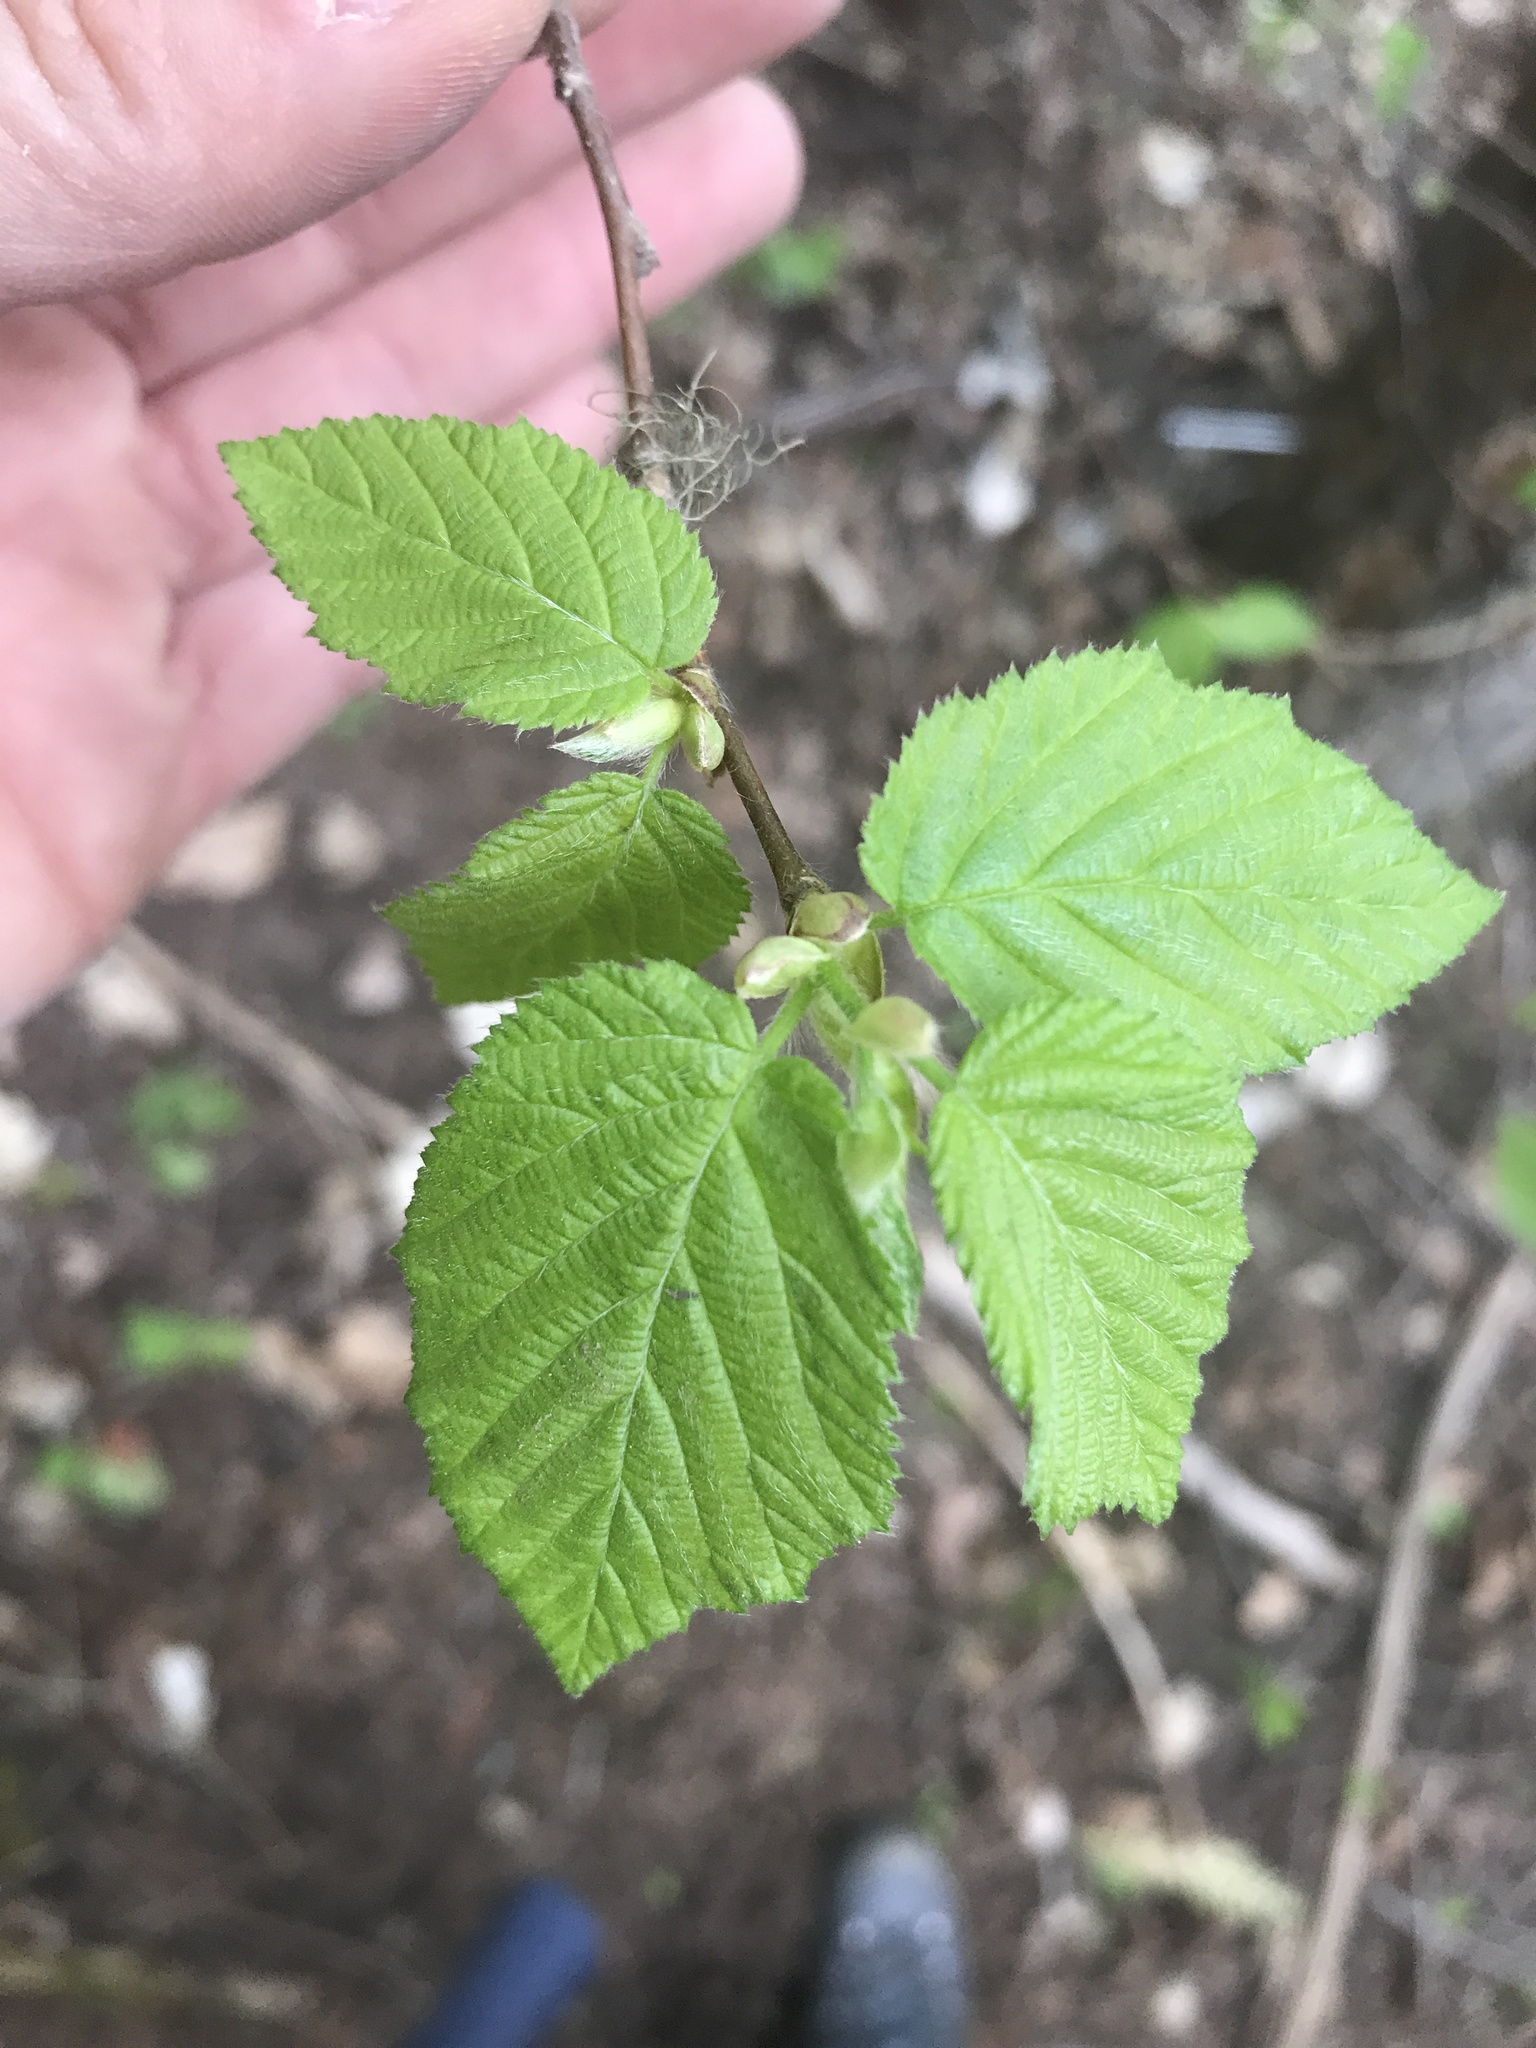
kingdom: Plantae
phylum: Tracheophyta
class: Magnoliopsida
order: Fagales
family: Betulaceae
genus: Corylus
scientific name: Corylus cornuta
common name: Beaked hazel
